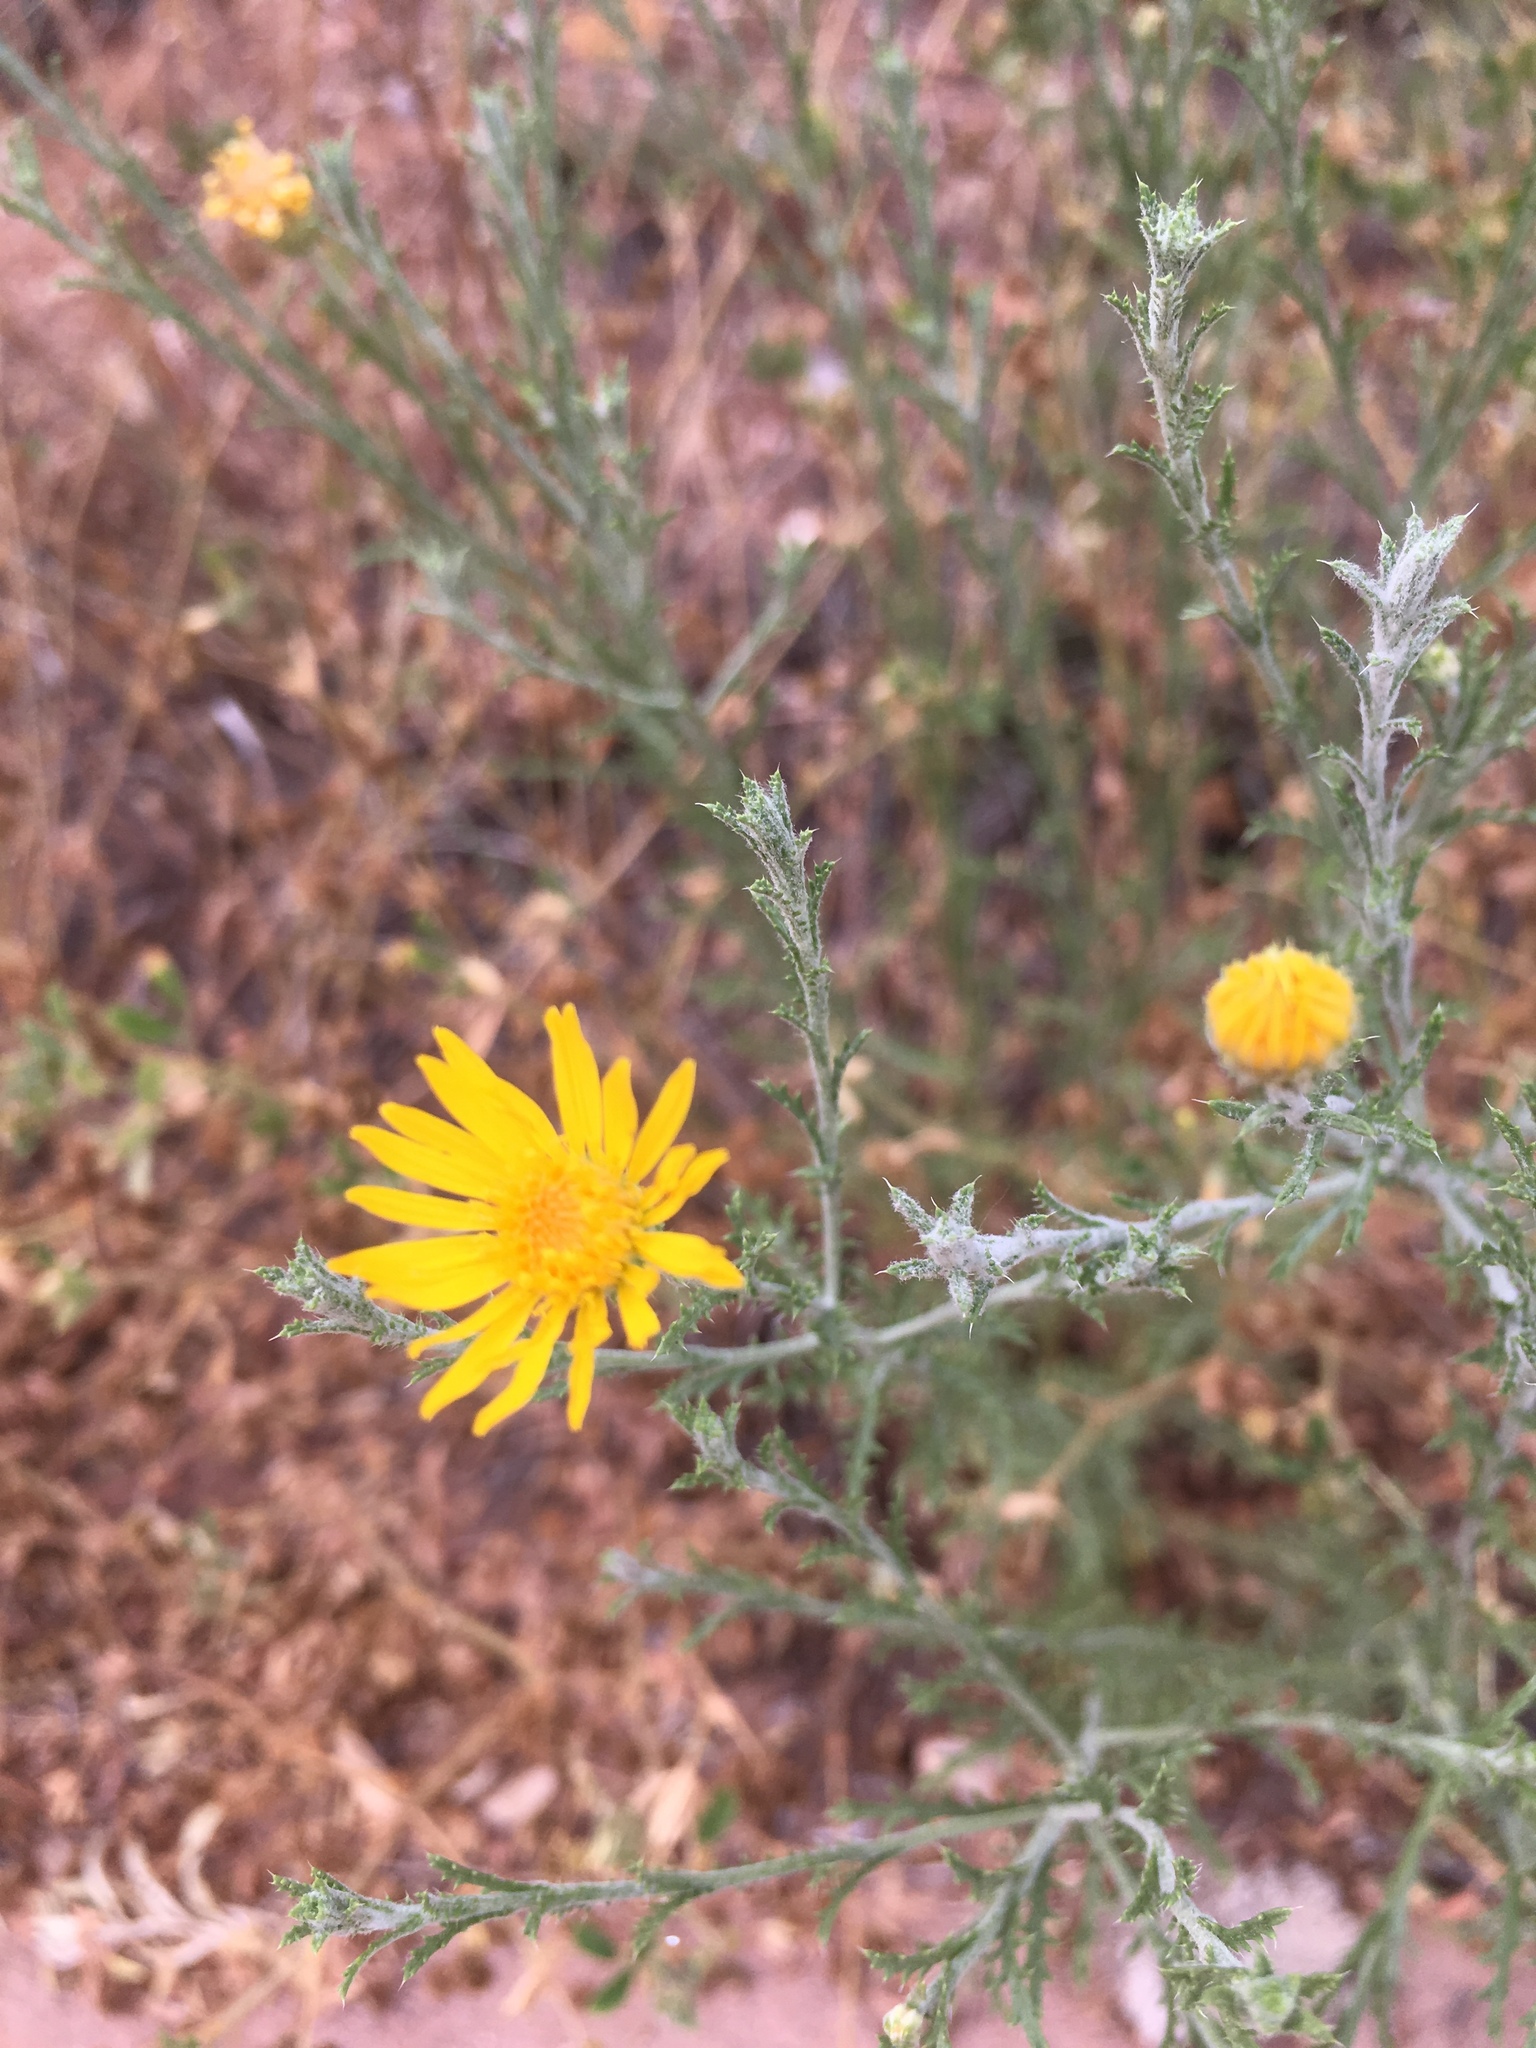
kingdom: Plantae
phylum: Tracheophyta
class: Magnoliopsida
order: Asterales
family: Asteraceae
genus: Xanthisma
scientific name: Xanthisma spinulosum
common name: Spiny goldenweed
